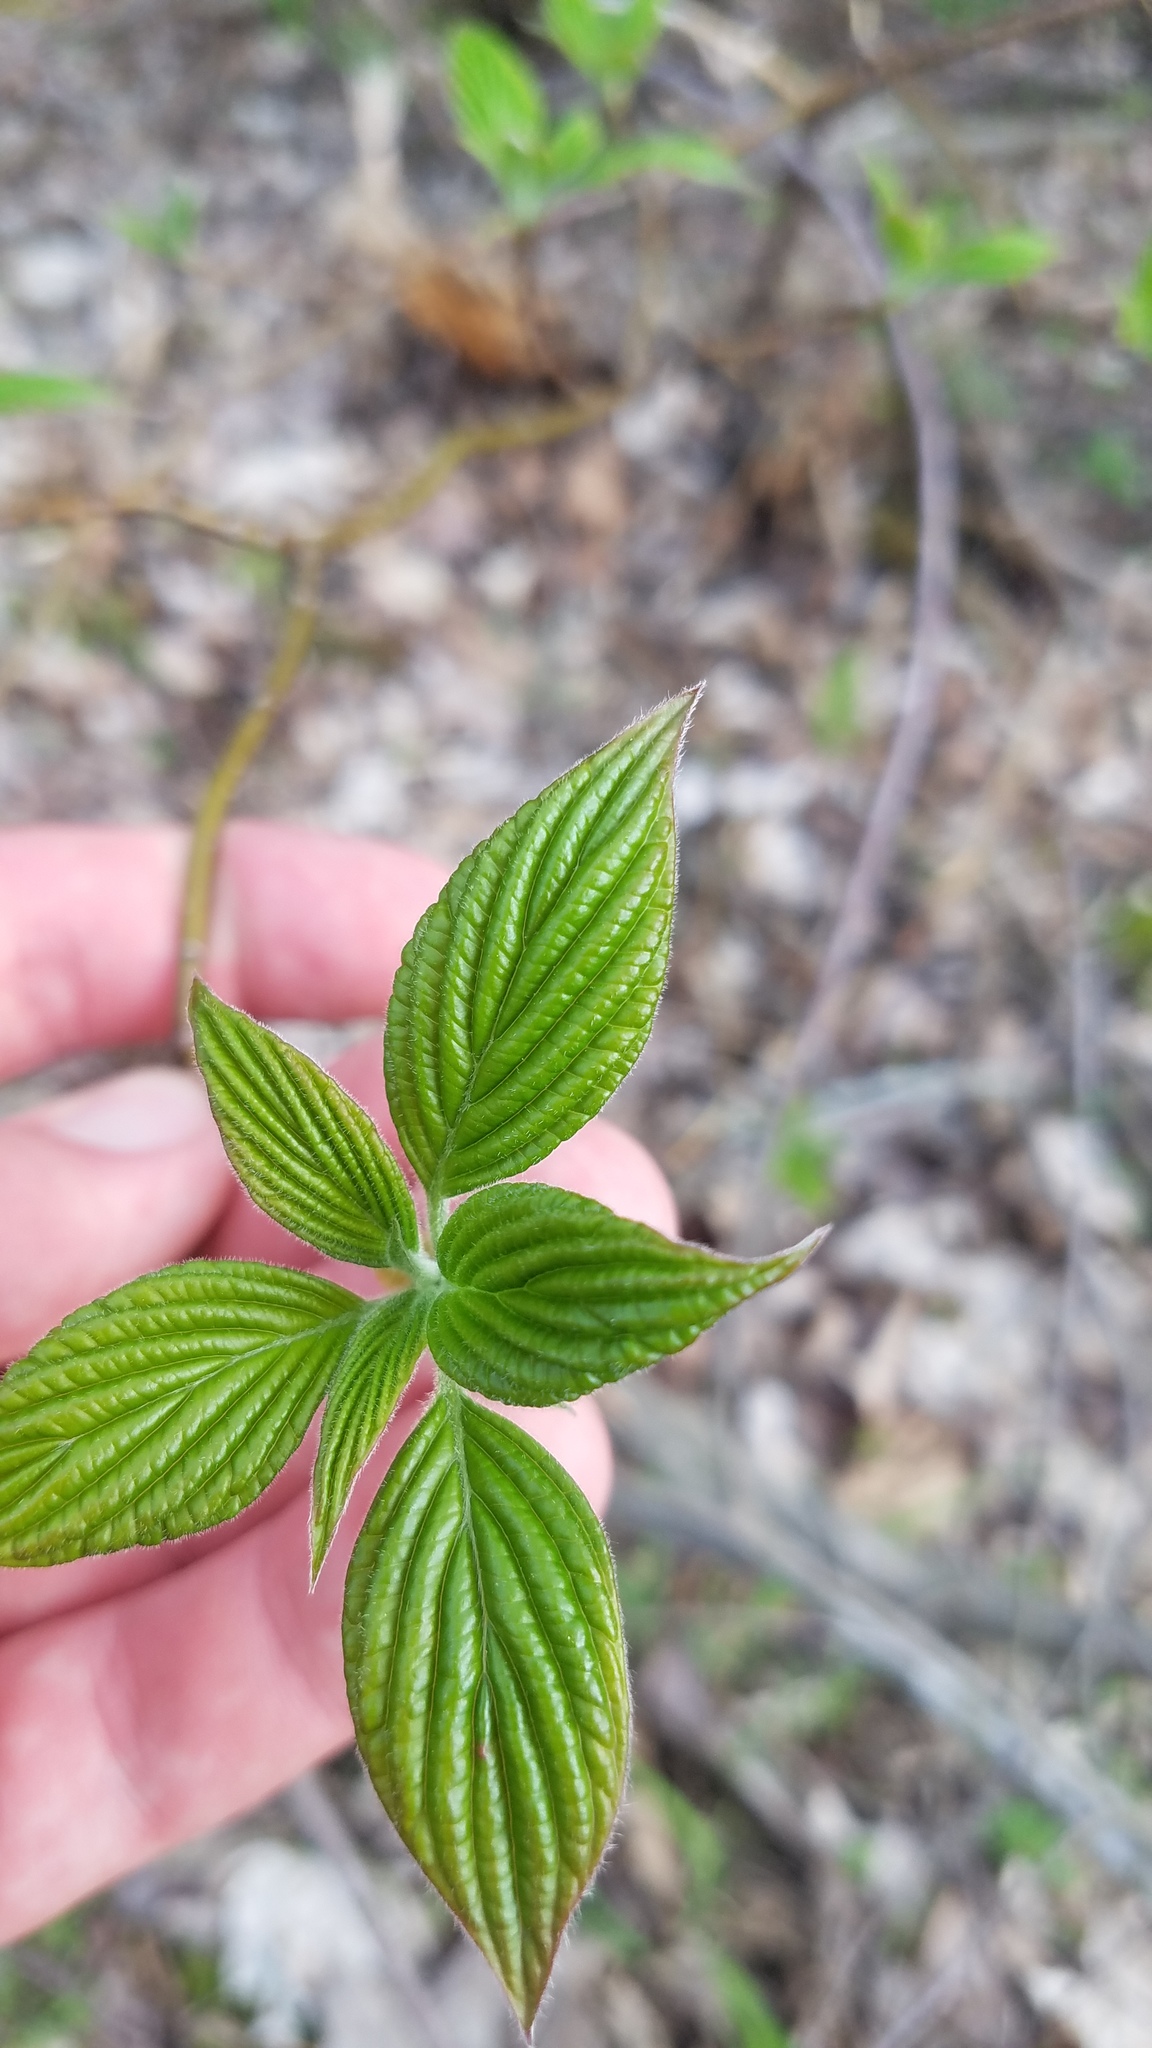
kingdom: Plantae
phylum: Tracheophyta
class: Magnoliopsida
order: Cornales
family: Cornaceae
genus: Cornus
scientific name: Cornus alternifolia
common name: Pagoda dogwood
